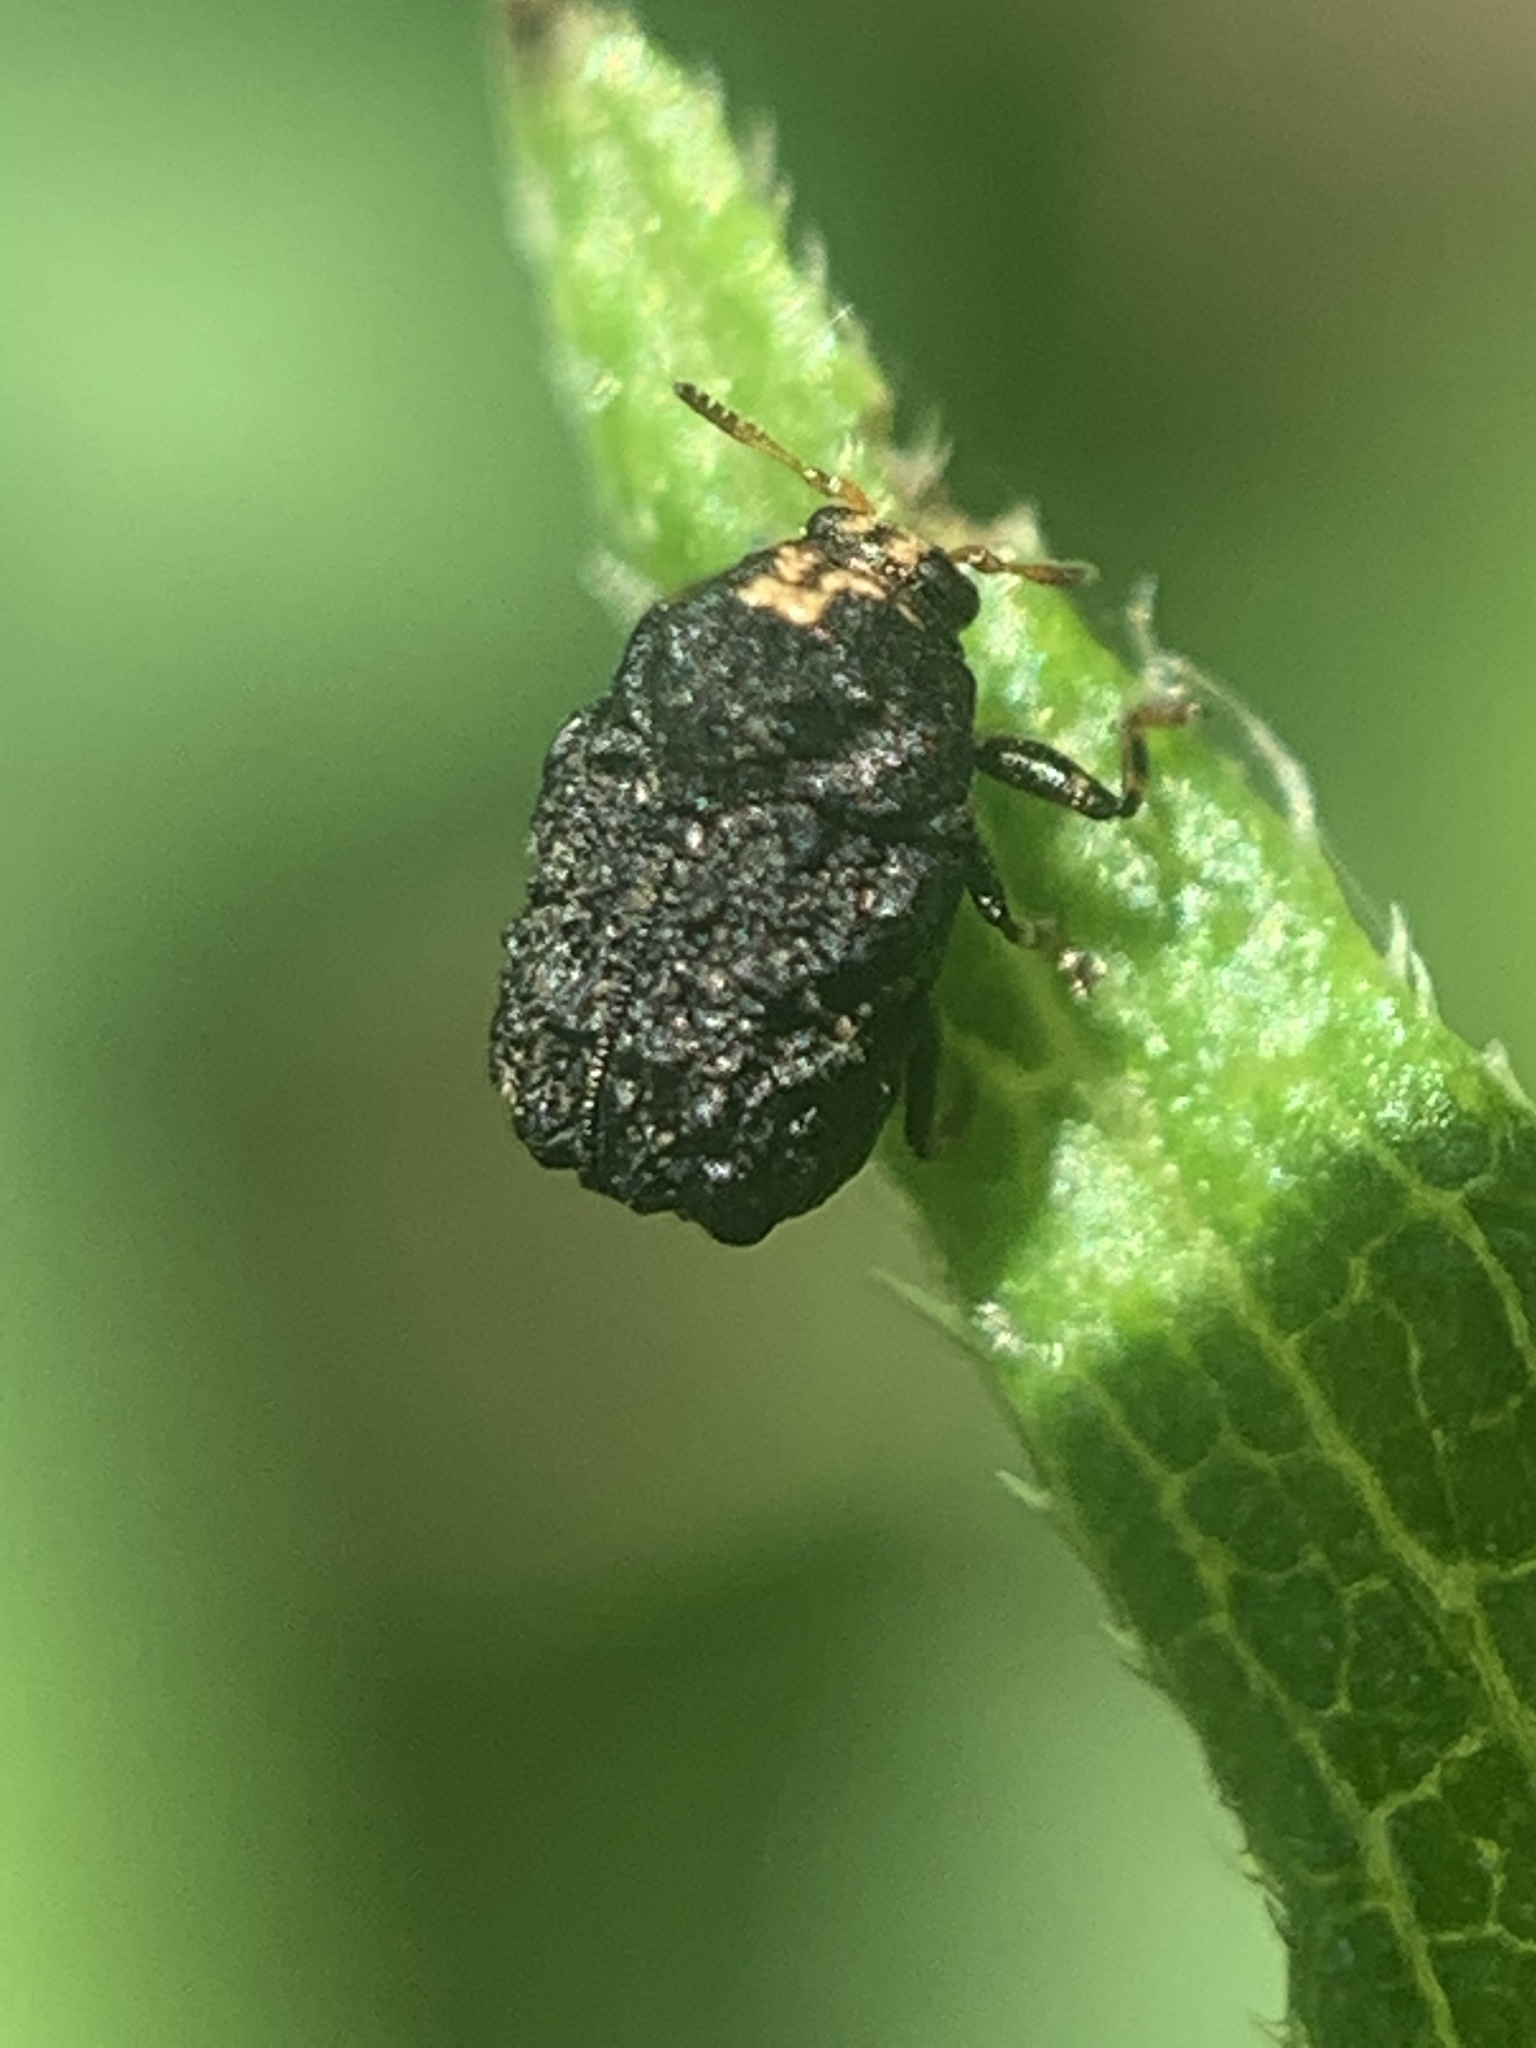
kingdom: Animalia
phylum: Arthropoda
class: Insecta
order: Coleoptera
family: Chrysomelidae
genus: Exema
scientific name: Exema dispar
